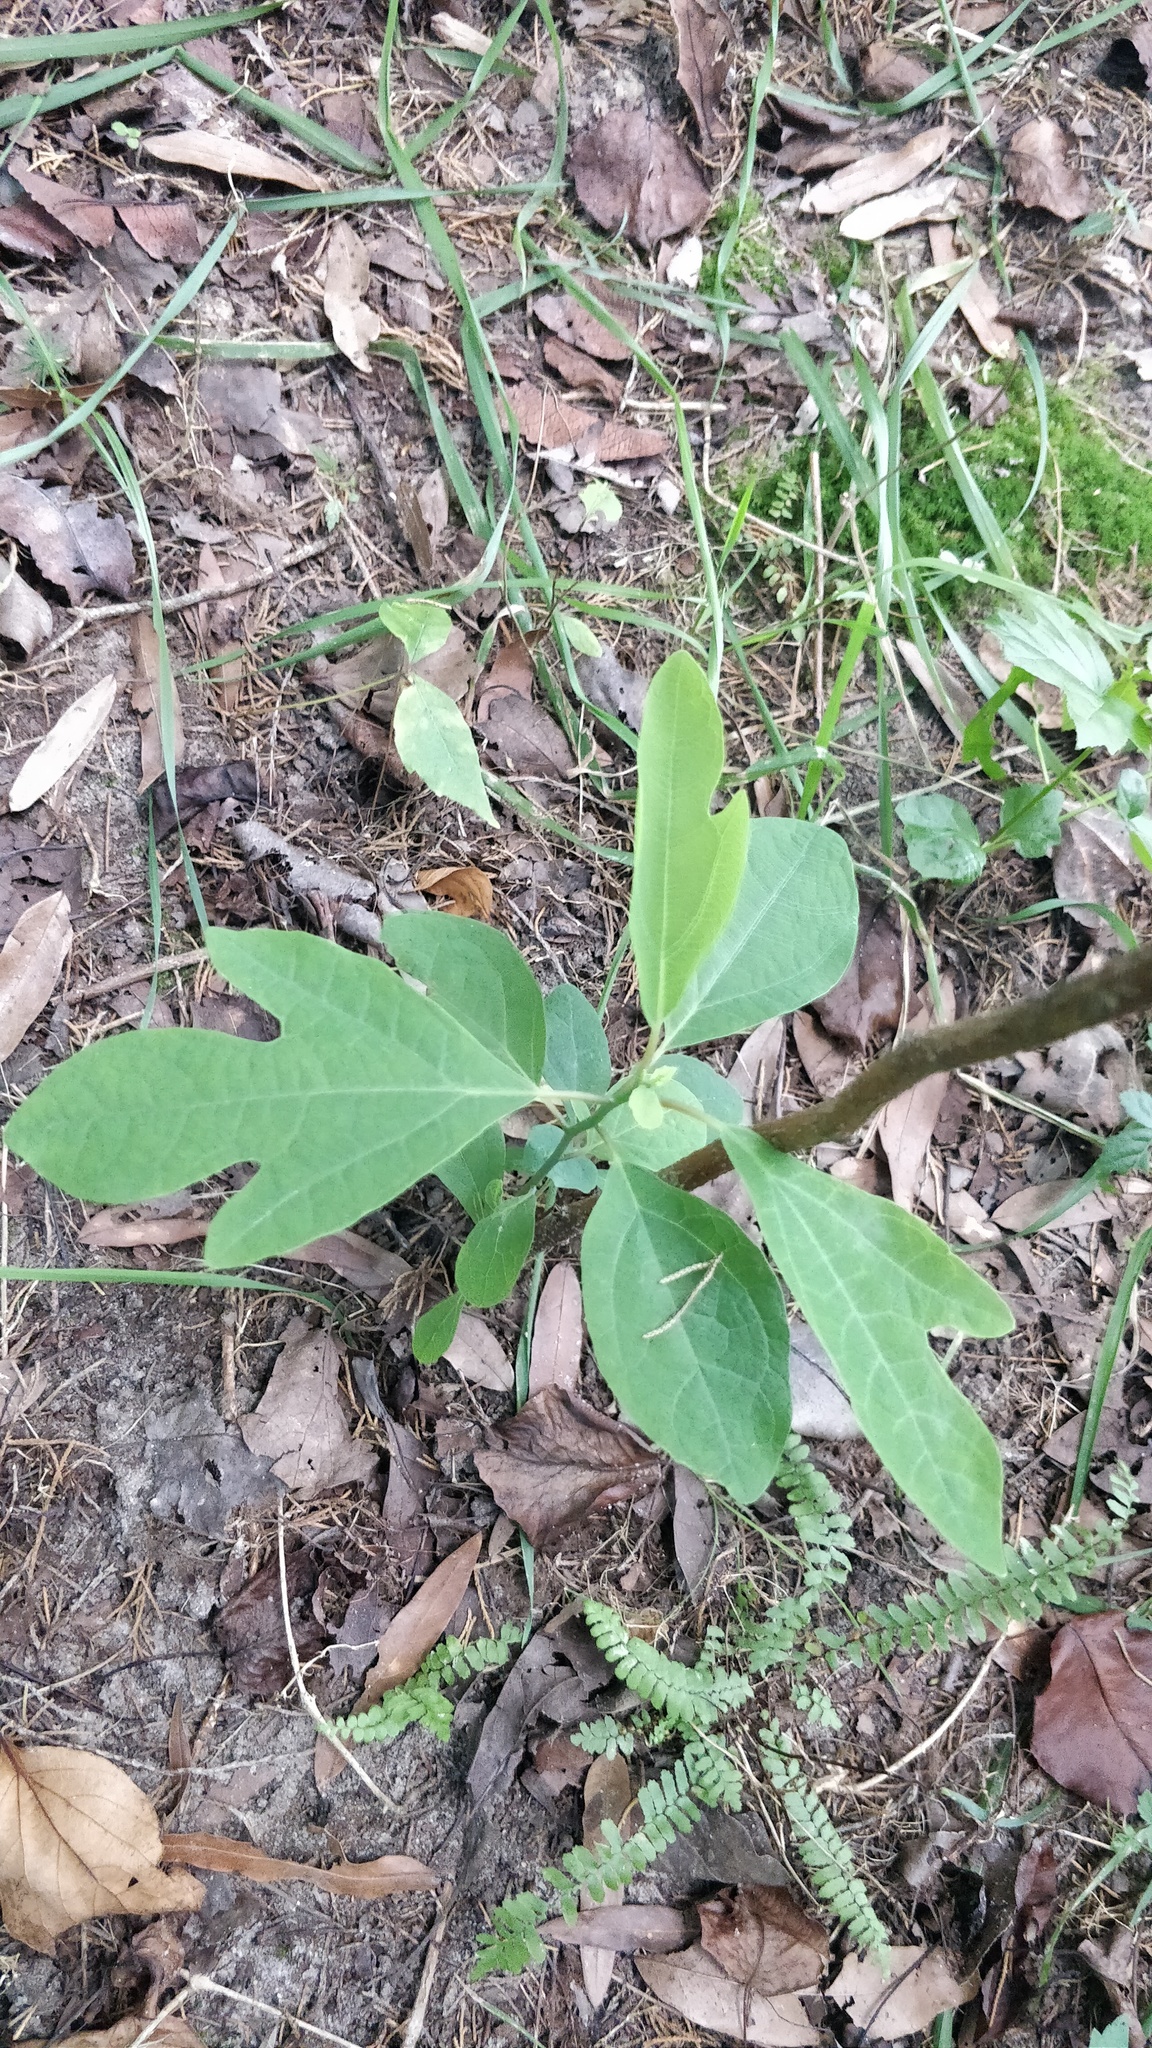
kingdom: Plantae
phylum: Tracheophyta
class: Magnoliopsida
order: Laurales
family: Lauraceae
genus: Sassafras
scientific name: Sassafras albidum
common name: Sassafras
